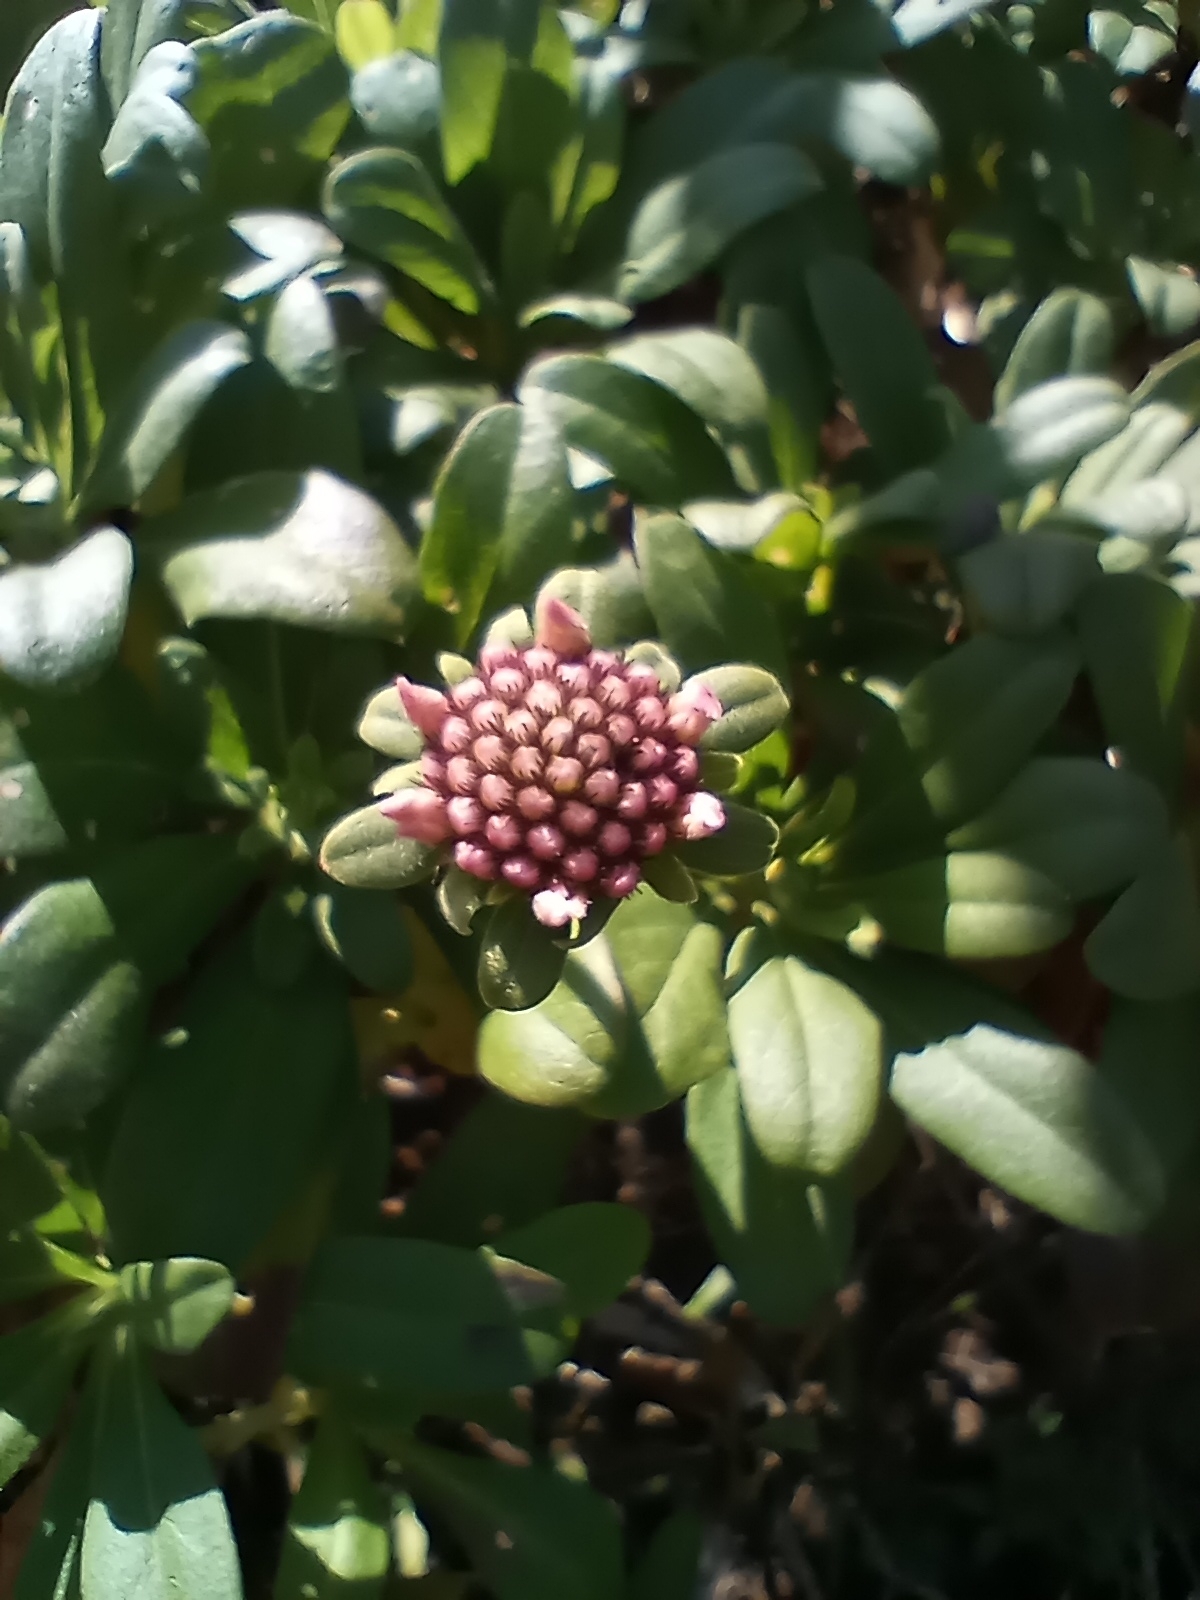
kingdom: Plantae
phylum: Tracheophyta
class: Magnoliopsida
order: Dipsacales
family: Caprifoliaceae
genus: Pterocephalus
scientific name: Pterocephalus virens
